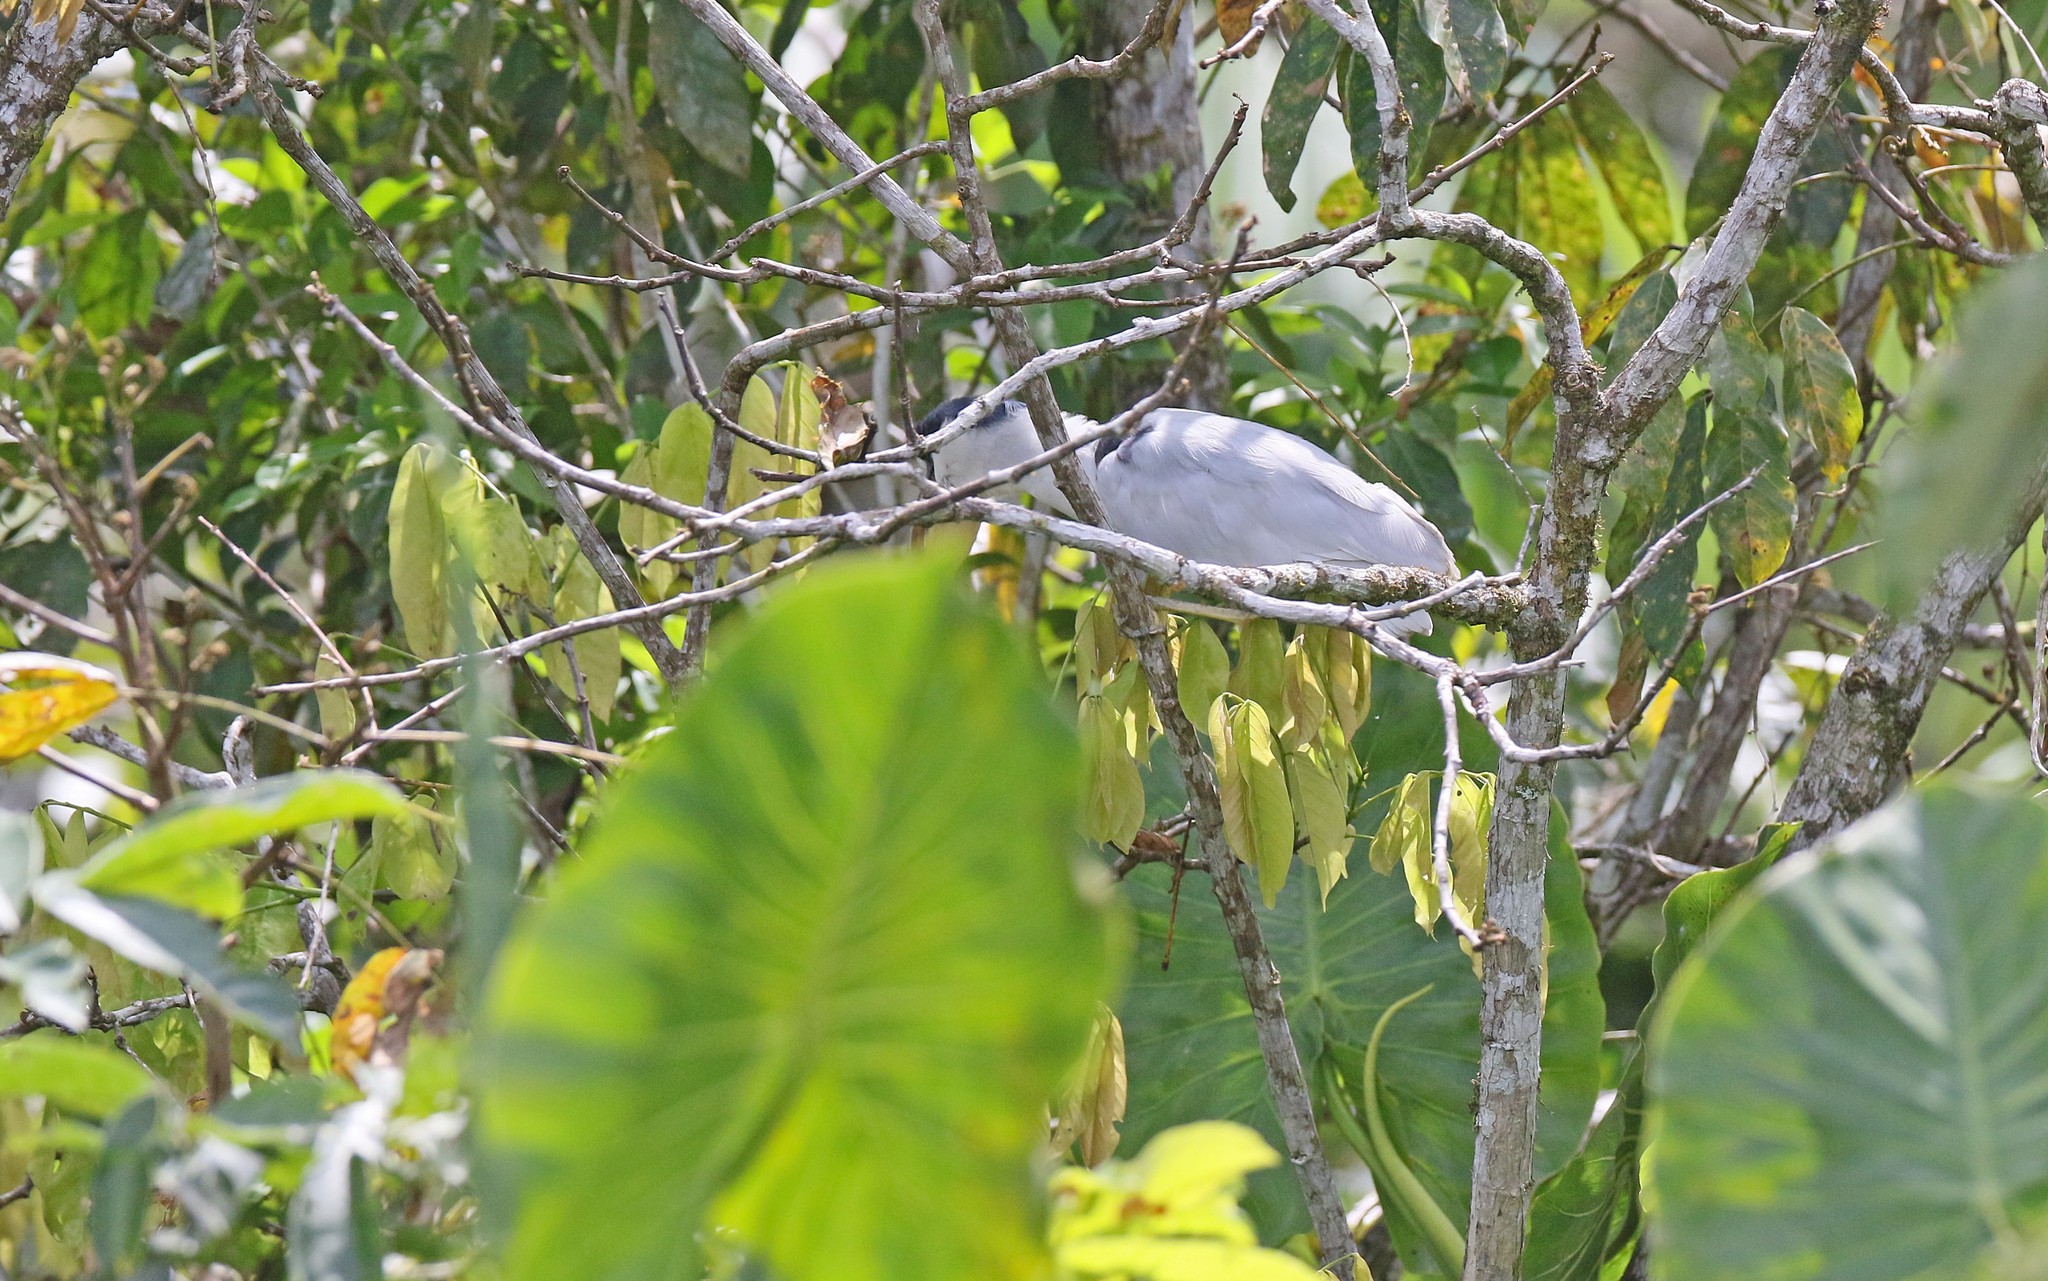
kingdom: Animalia
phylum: Chordata
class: Aves
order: Pelecaniformes
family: Ardeidae
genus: Cochlearius
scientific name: Cochlearius cochlearius
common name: Boat-billed heron
